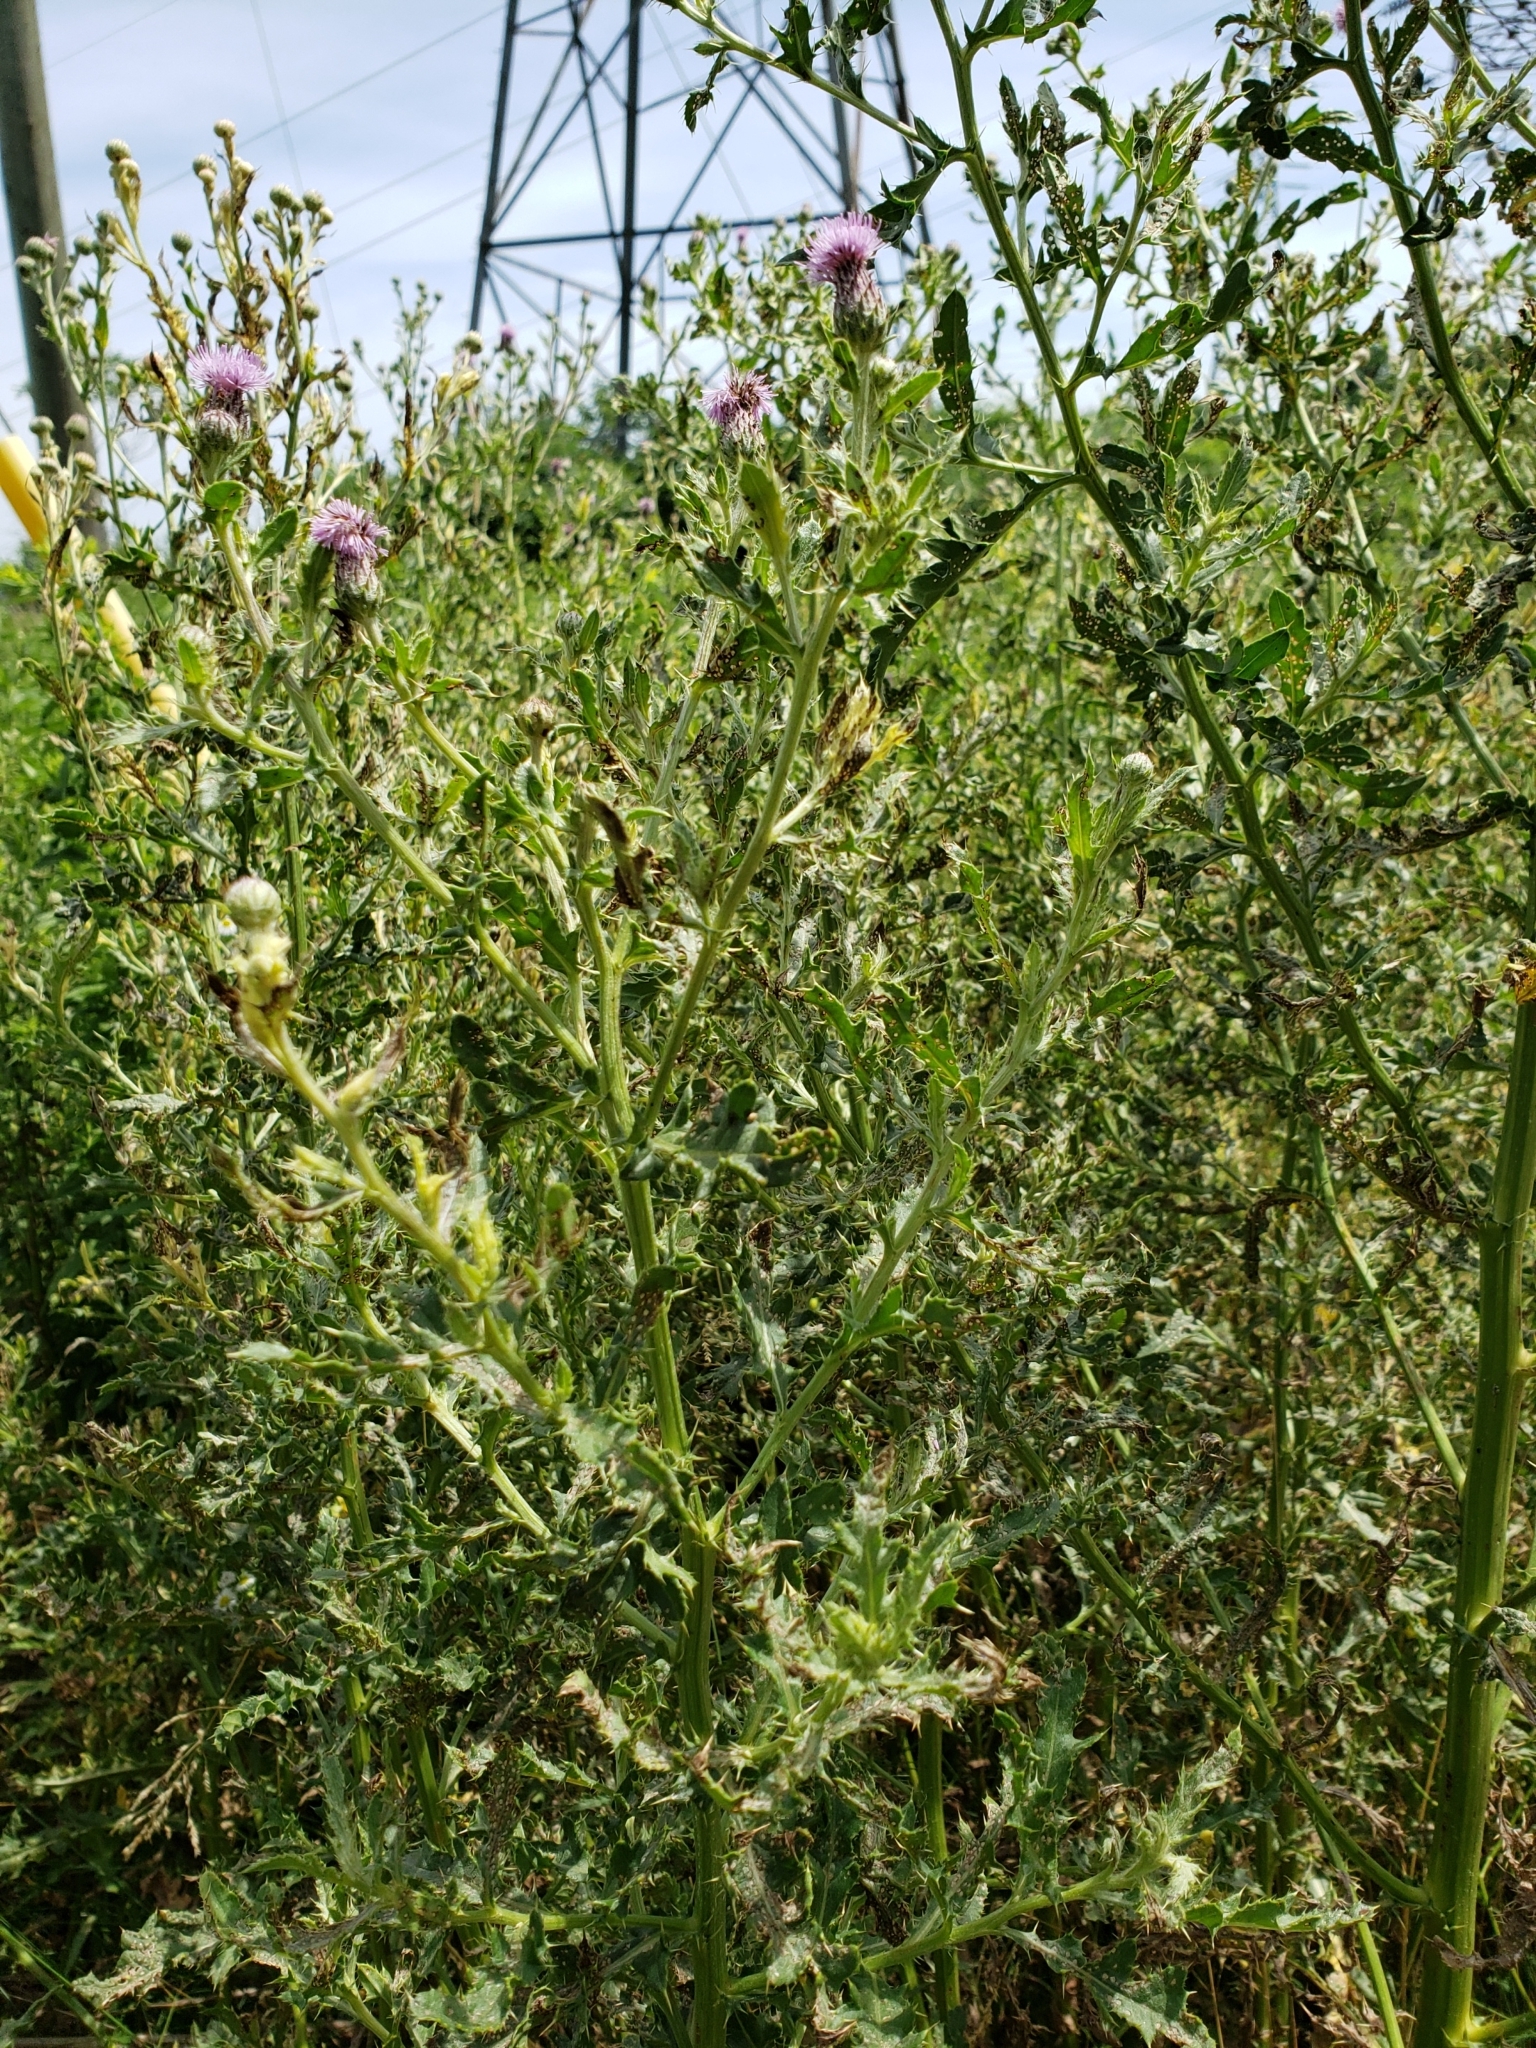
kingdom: Plantae
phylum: Tracheophyta
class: Magnoliopsida
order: Asterales
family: Asteraceae
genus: Cirsium
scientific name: Cirsium arvense
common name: Creeping thistle
